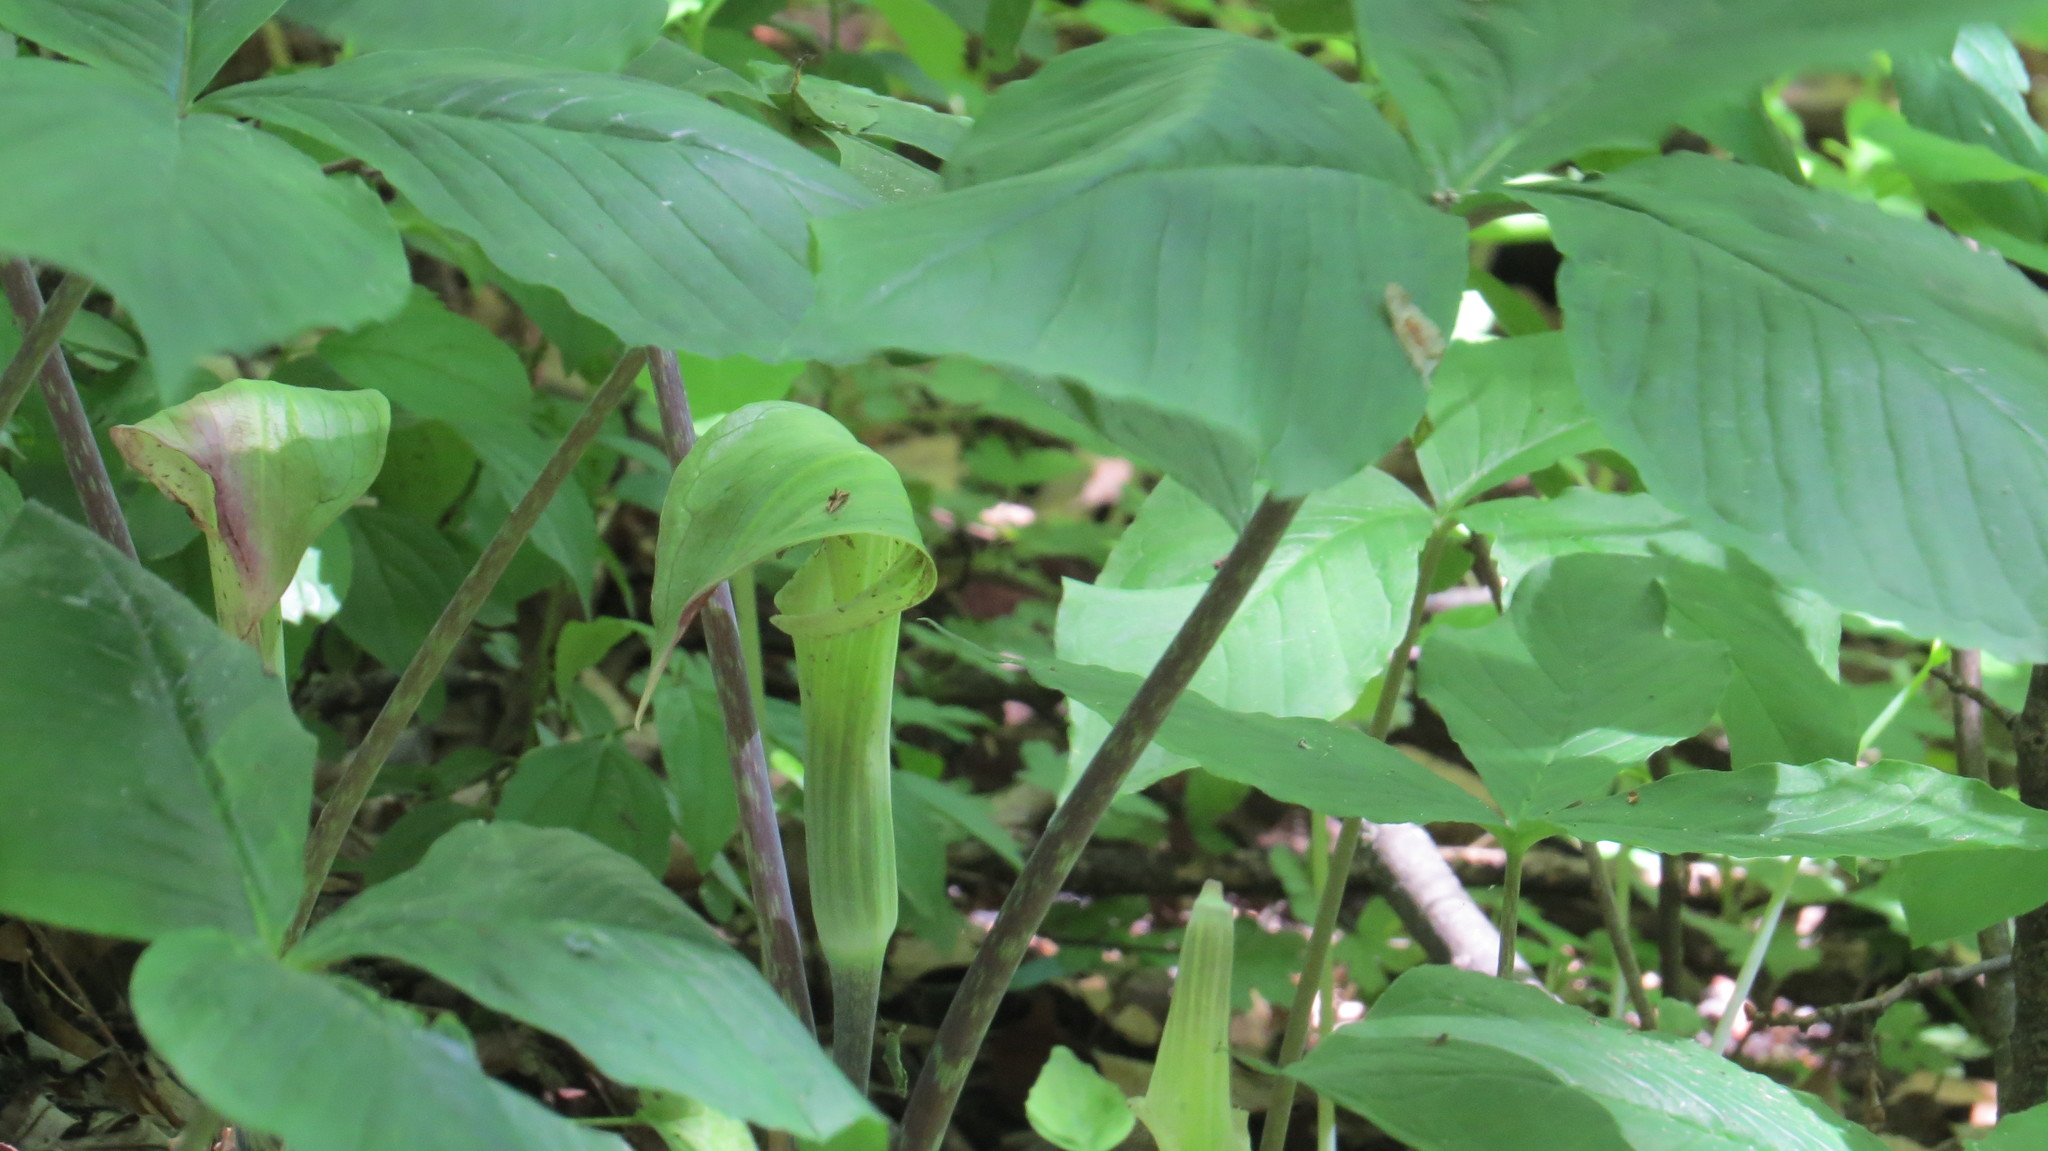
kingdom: Plantae
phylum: Tracheophyta
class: Liliopsida
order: Alismatales
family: Araceae
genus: Arisaema
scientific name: Arisaema triphyllum
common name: Jack-in-the-pulpit
